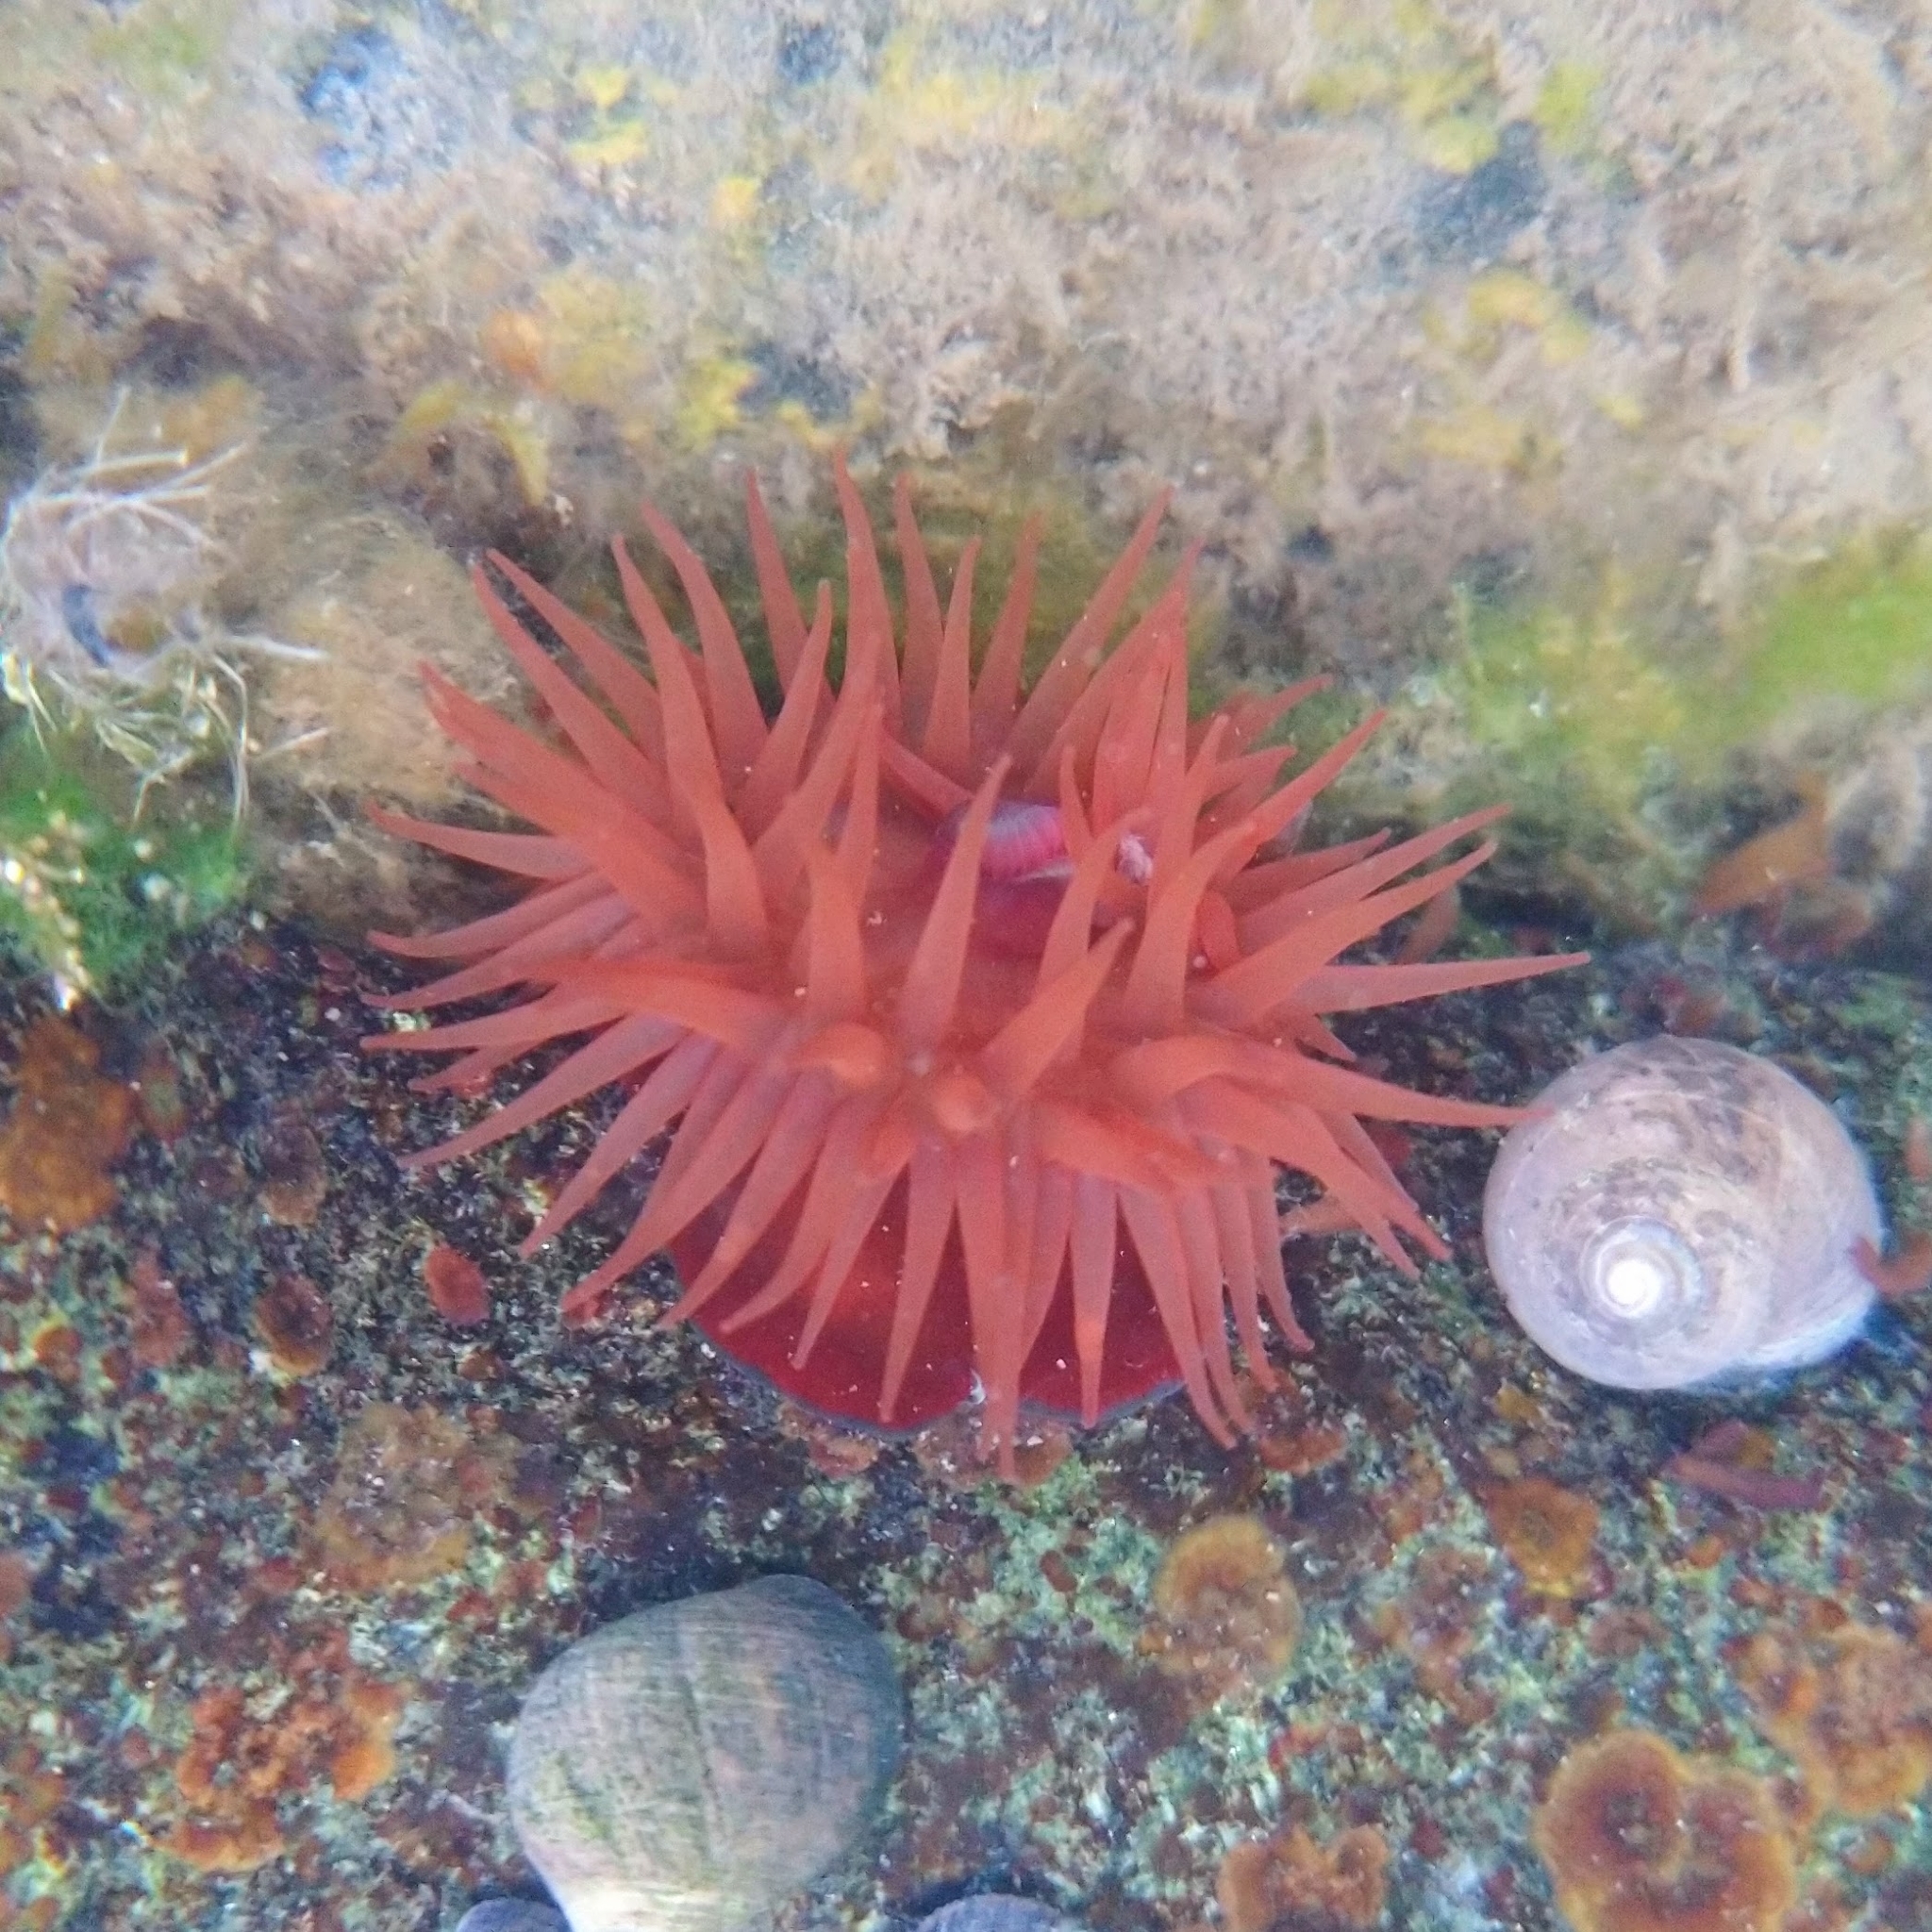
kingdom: Animalia
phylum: Cnidaria
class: Anthozoa
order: Actiniaria
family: Actiniidae
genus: Actinia
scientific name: Actinia equina
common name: Beadlet anemone
